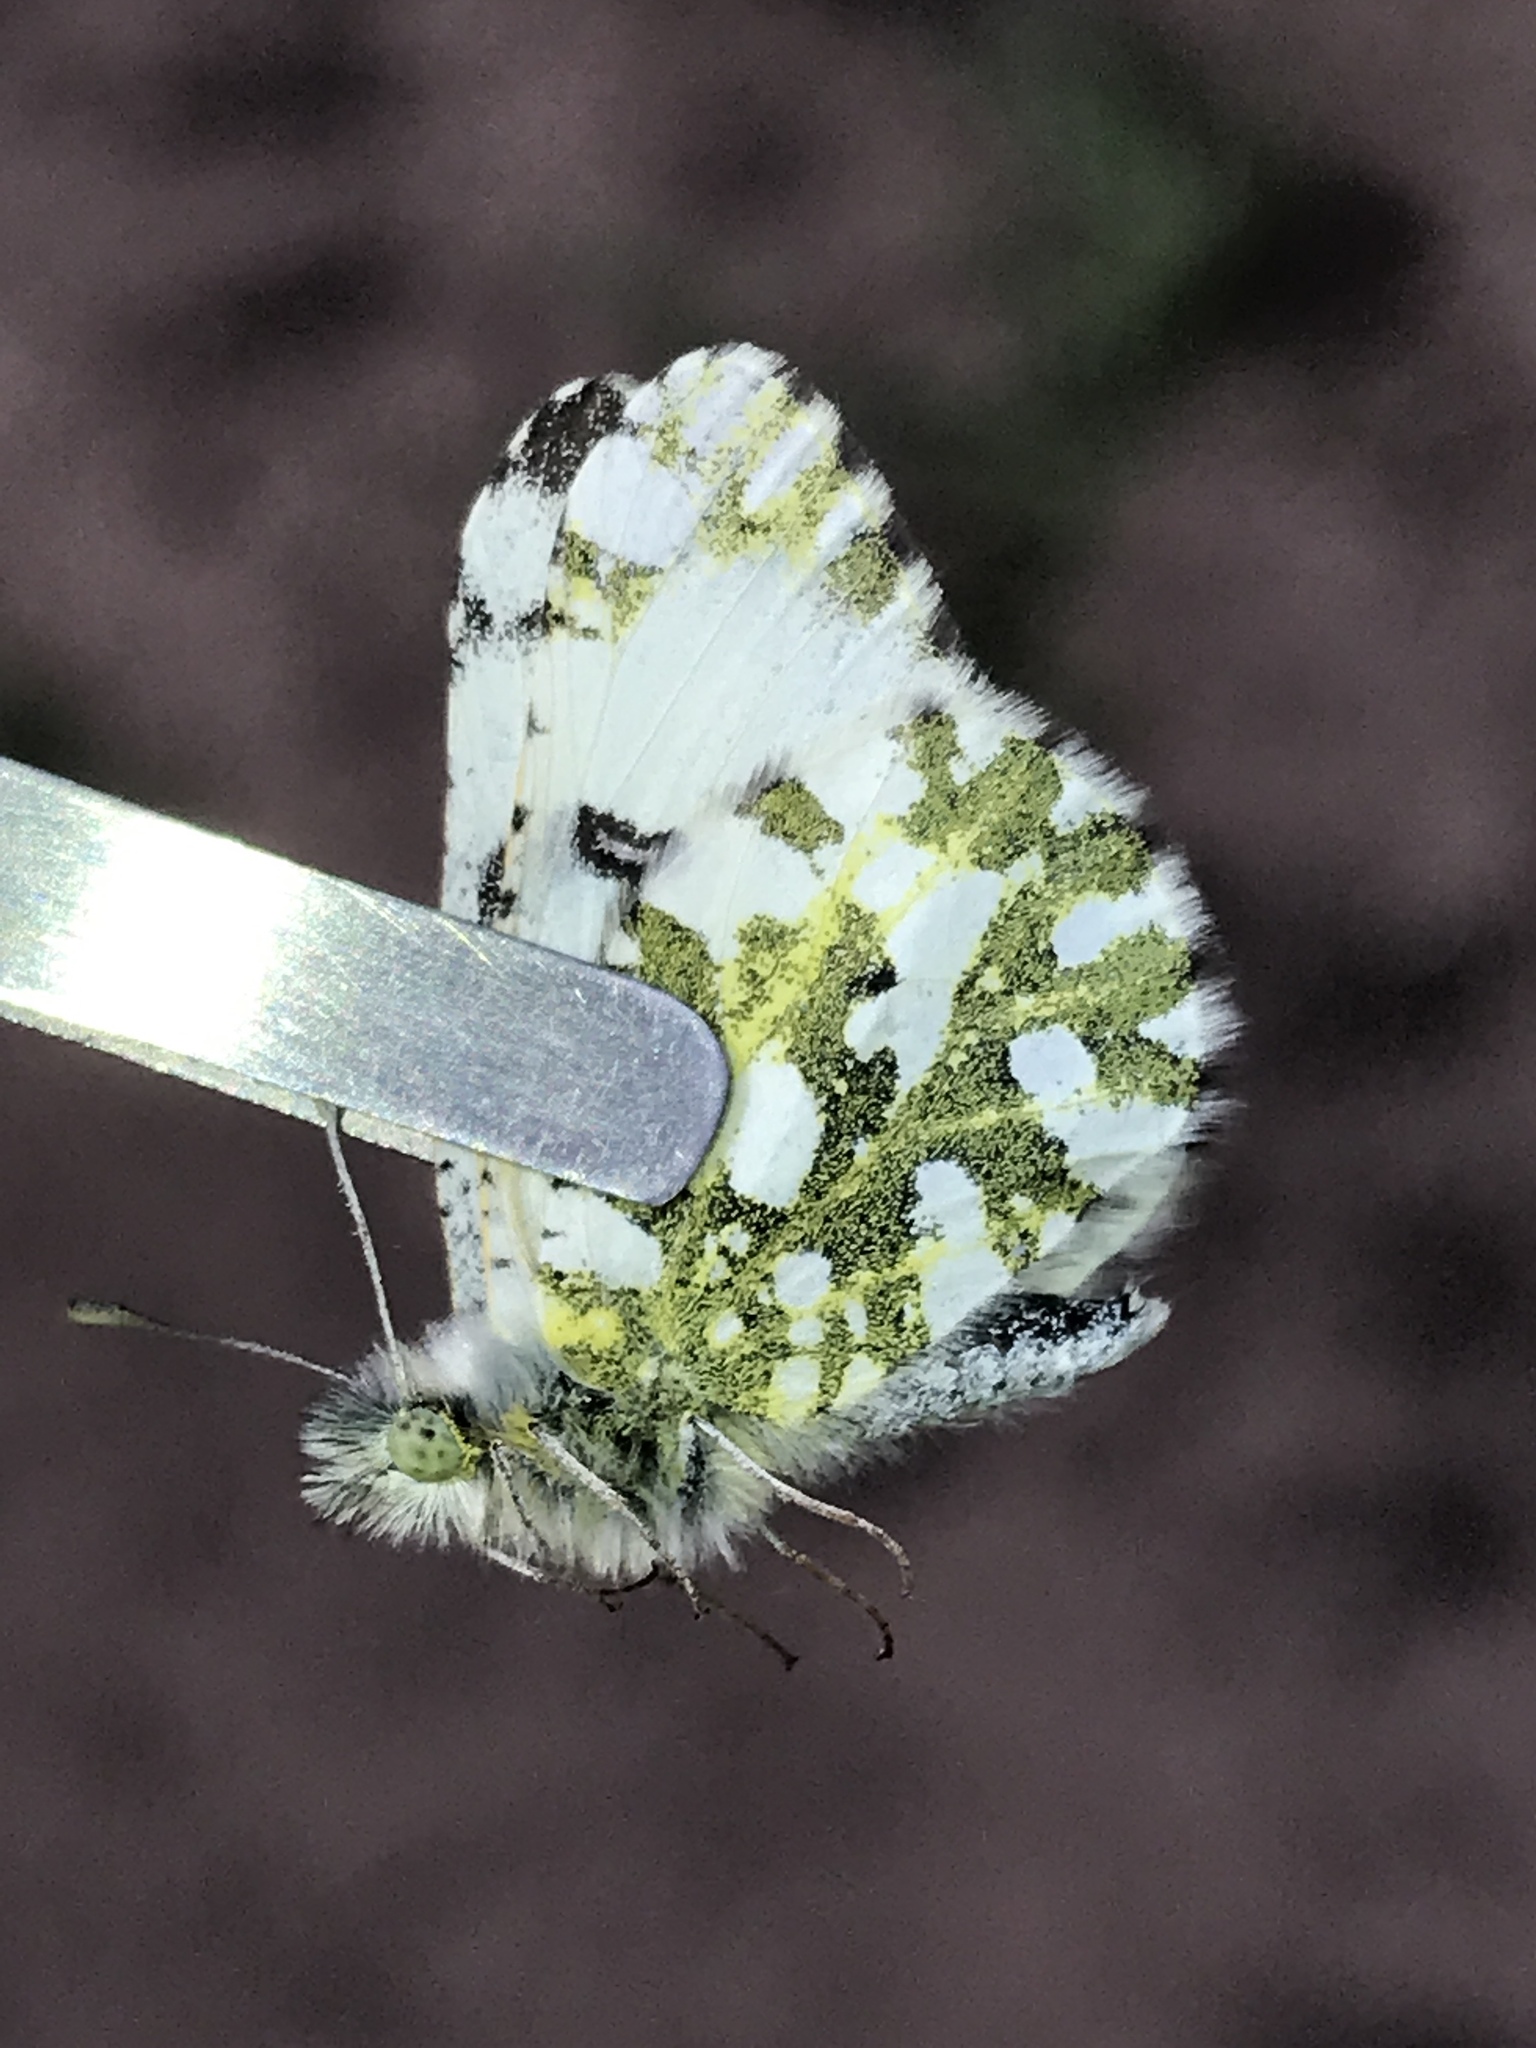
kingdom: Animalia
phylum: Arthropoda
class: Insecta
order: Lepidoptera
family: Pieridae
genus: Euchloe
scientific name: Euchloe ausonides
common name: Creamy marblewing
